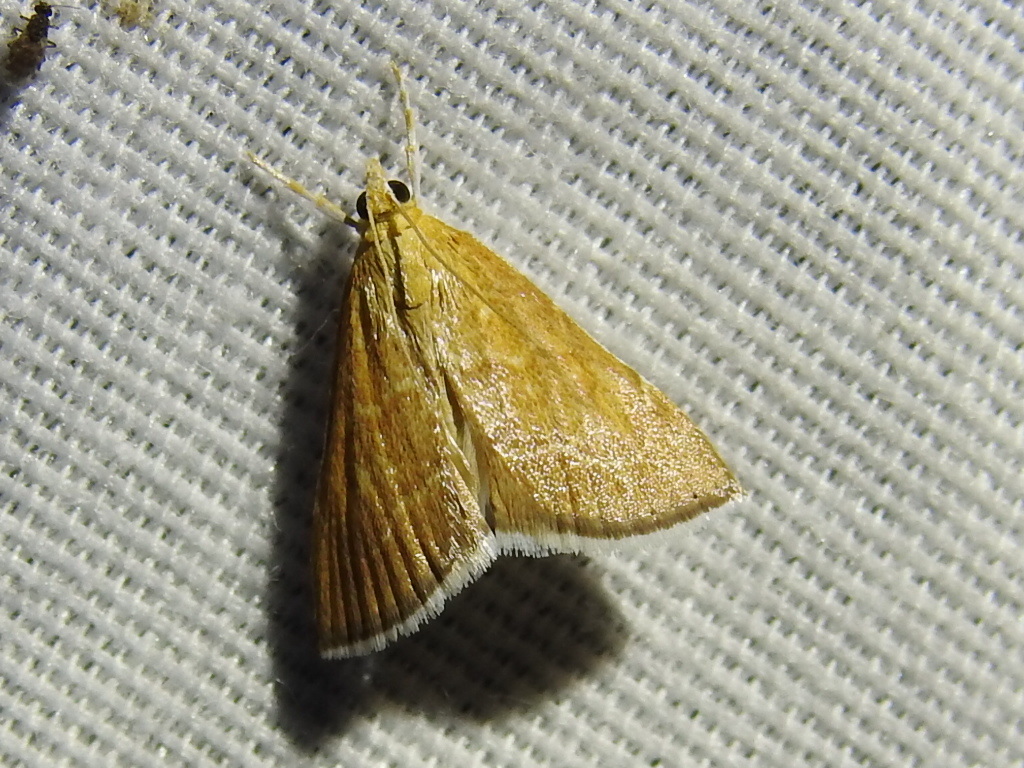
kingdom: Animalia
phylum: Arthropoda
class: Insecta
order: Lepidoptera
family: Crambidae
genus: Glaphyria
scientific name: Glaphyria invisalis
